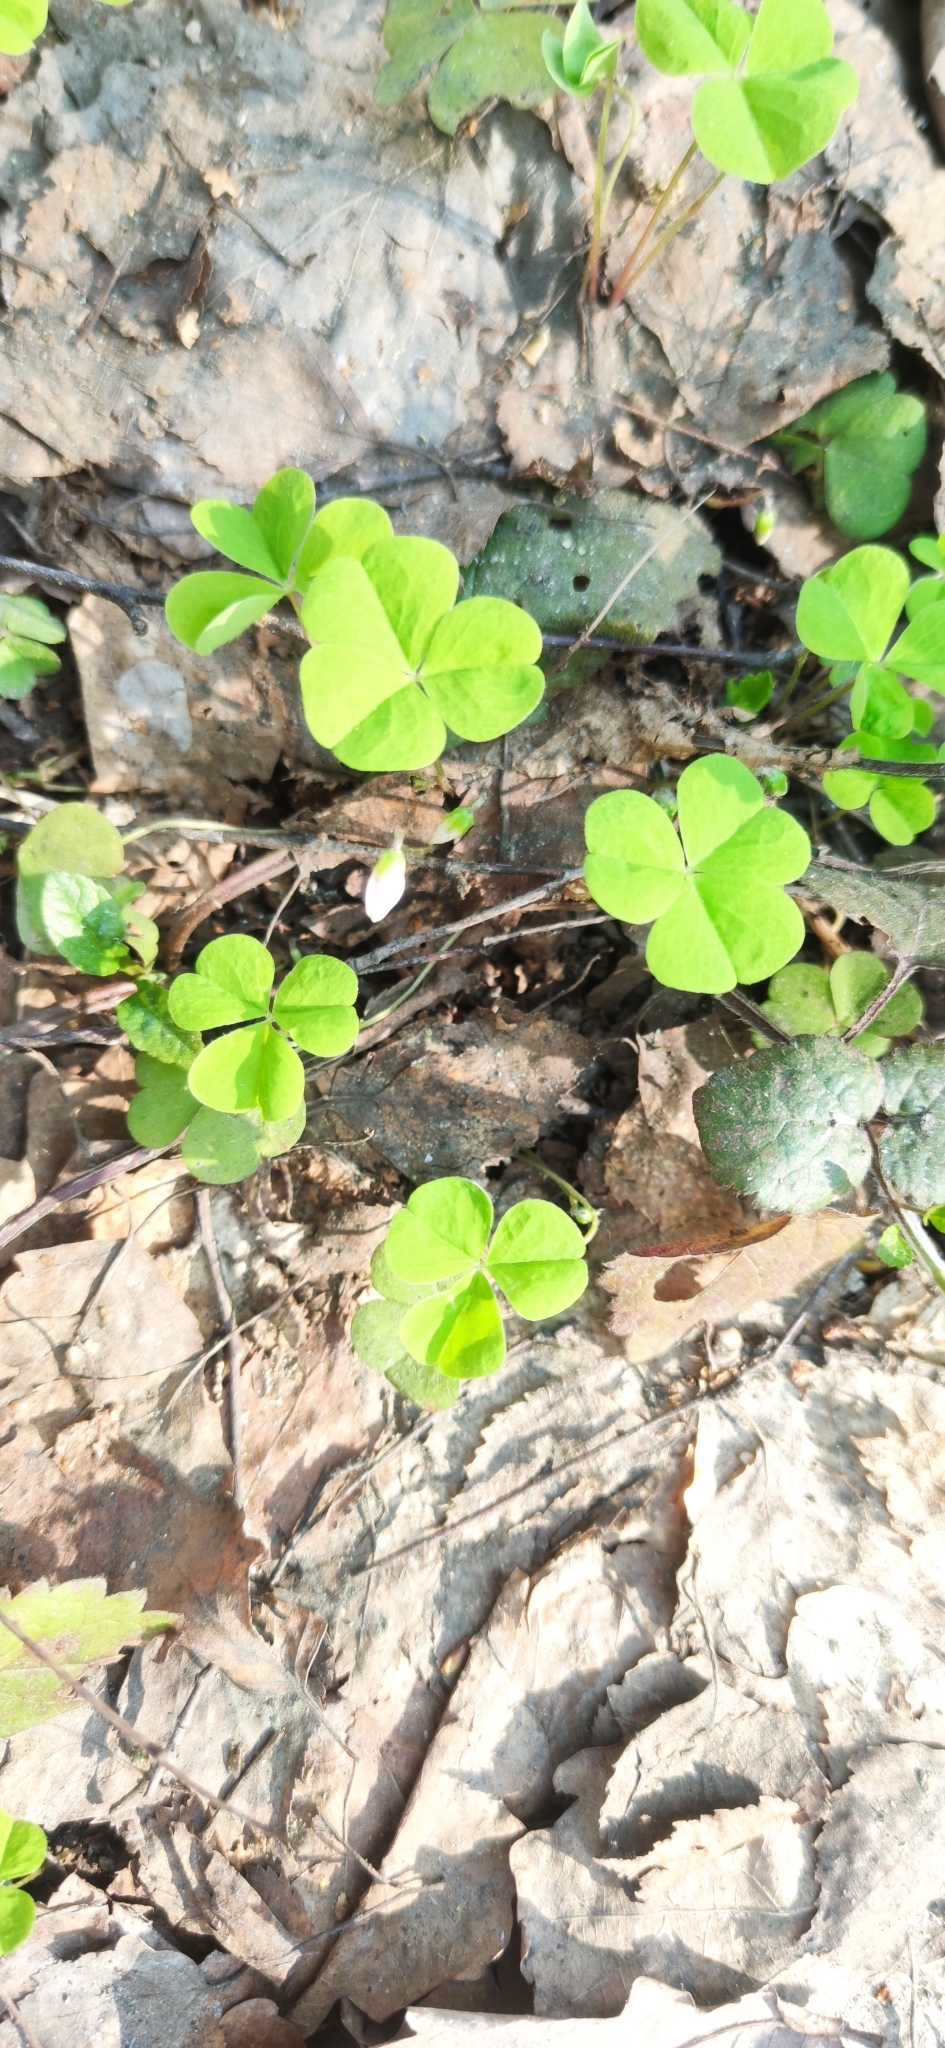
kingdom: Plantae
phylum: Tracheophyta
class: Magnoliopsida
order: Oxalidales
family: Oxalidaceae
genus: Oxalis
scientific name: Oxalis acetosella
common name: Wood-sorrel
